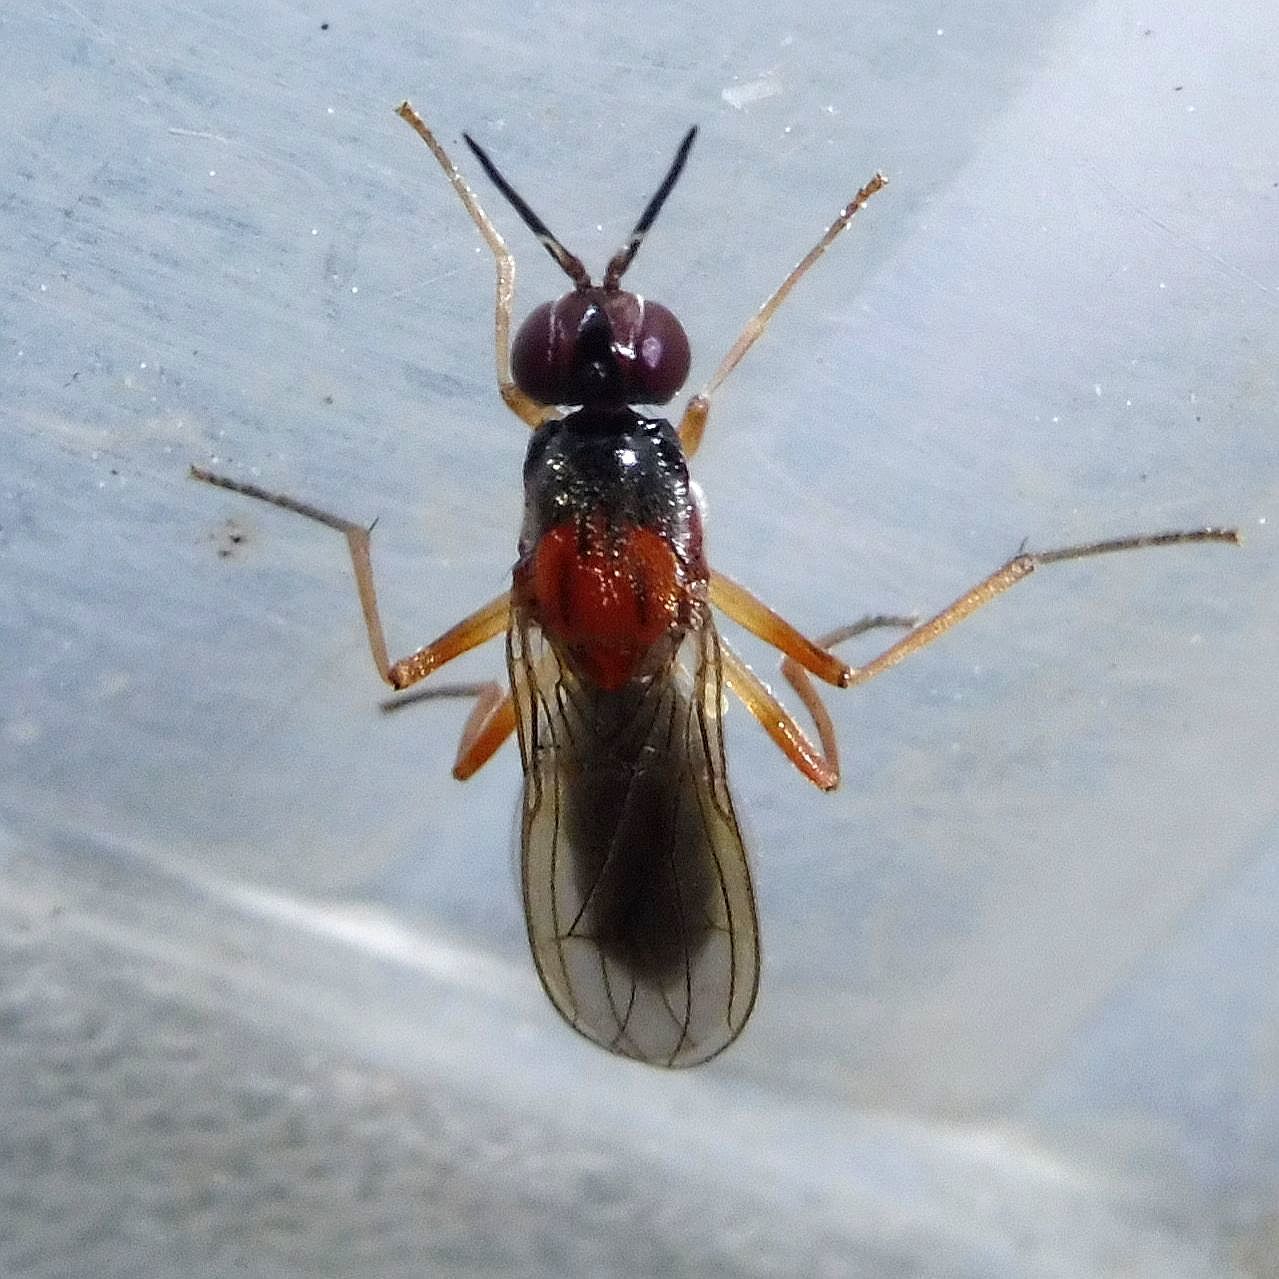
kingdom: Animalia
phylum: Arthropoda
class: Insecta
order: Diptera
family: Psilidae
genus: Loxocera
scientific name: Loxocera albiseta
